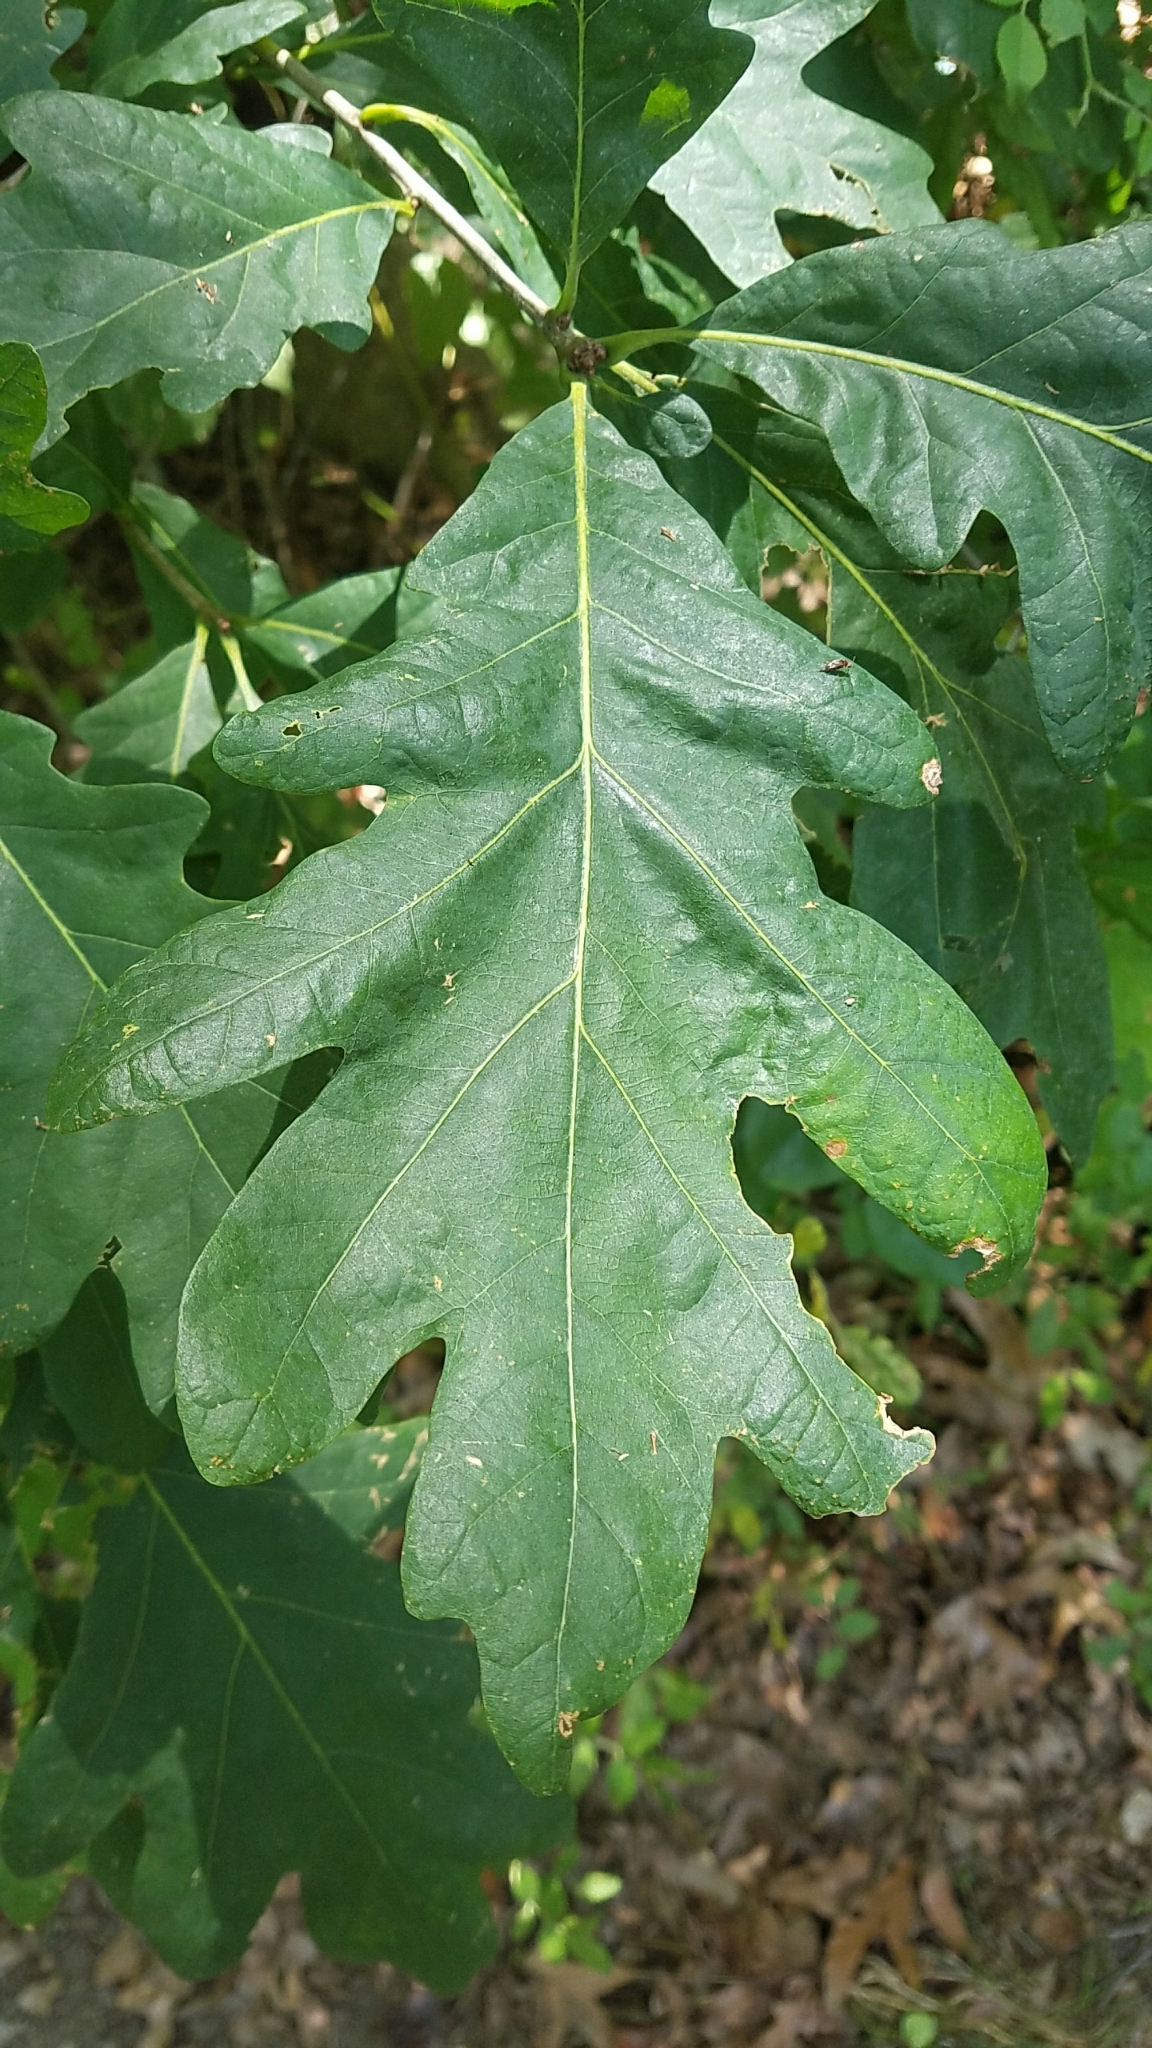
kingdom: Plantae
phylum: Tracheophyta
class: Magnoliopsida
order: Fagales
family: Fagaceae
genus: Quercus
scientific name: Quercus alba
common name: White oak
